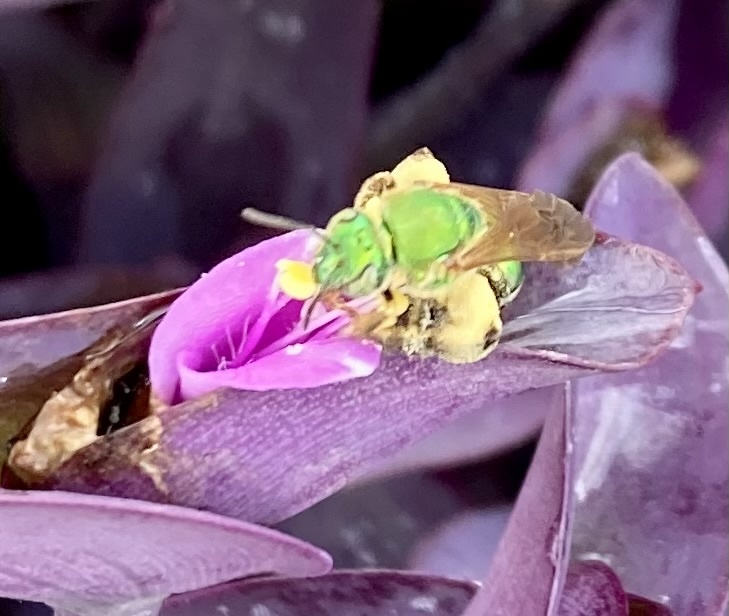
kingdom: Animalia
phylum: Arthropoda
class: Insecta
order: Hymenoptera
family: Halictidae
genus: Agapostemon
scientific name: Agapostemon splendens
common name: Brown-winged striped sweat bee
